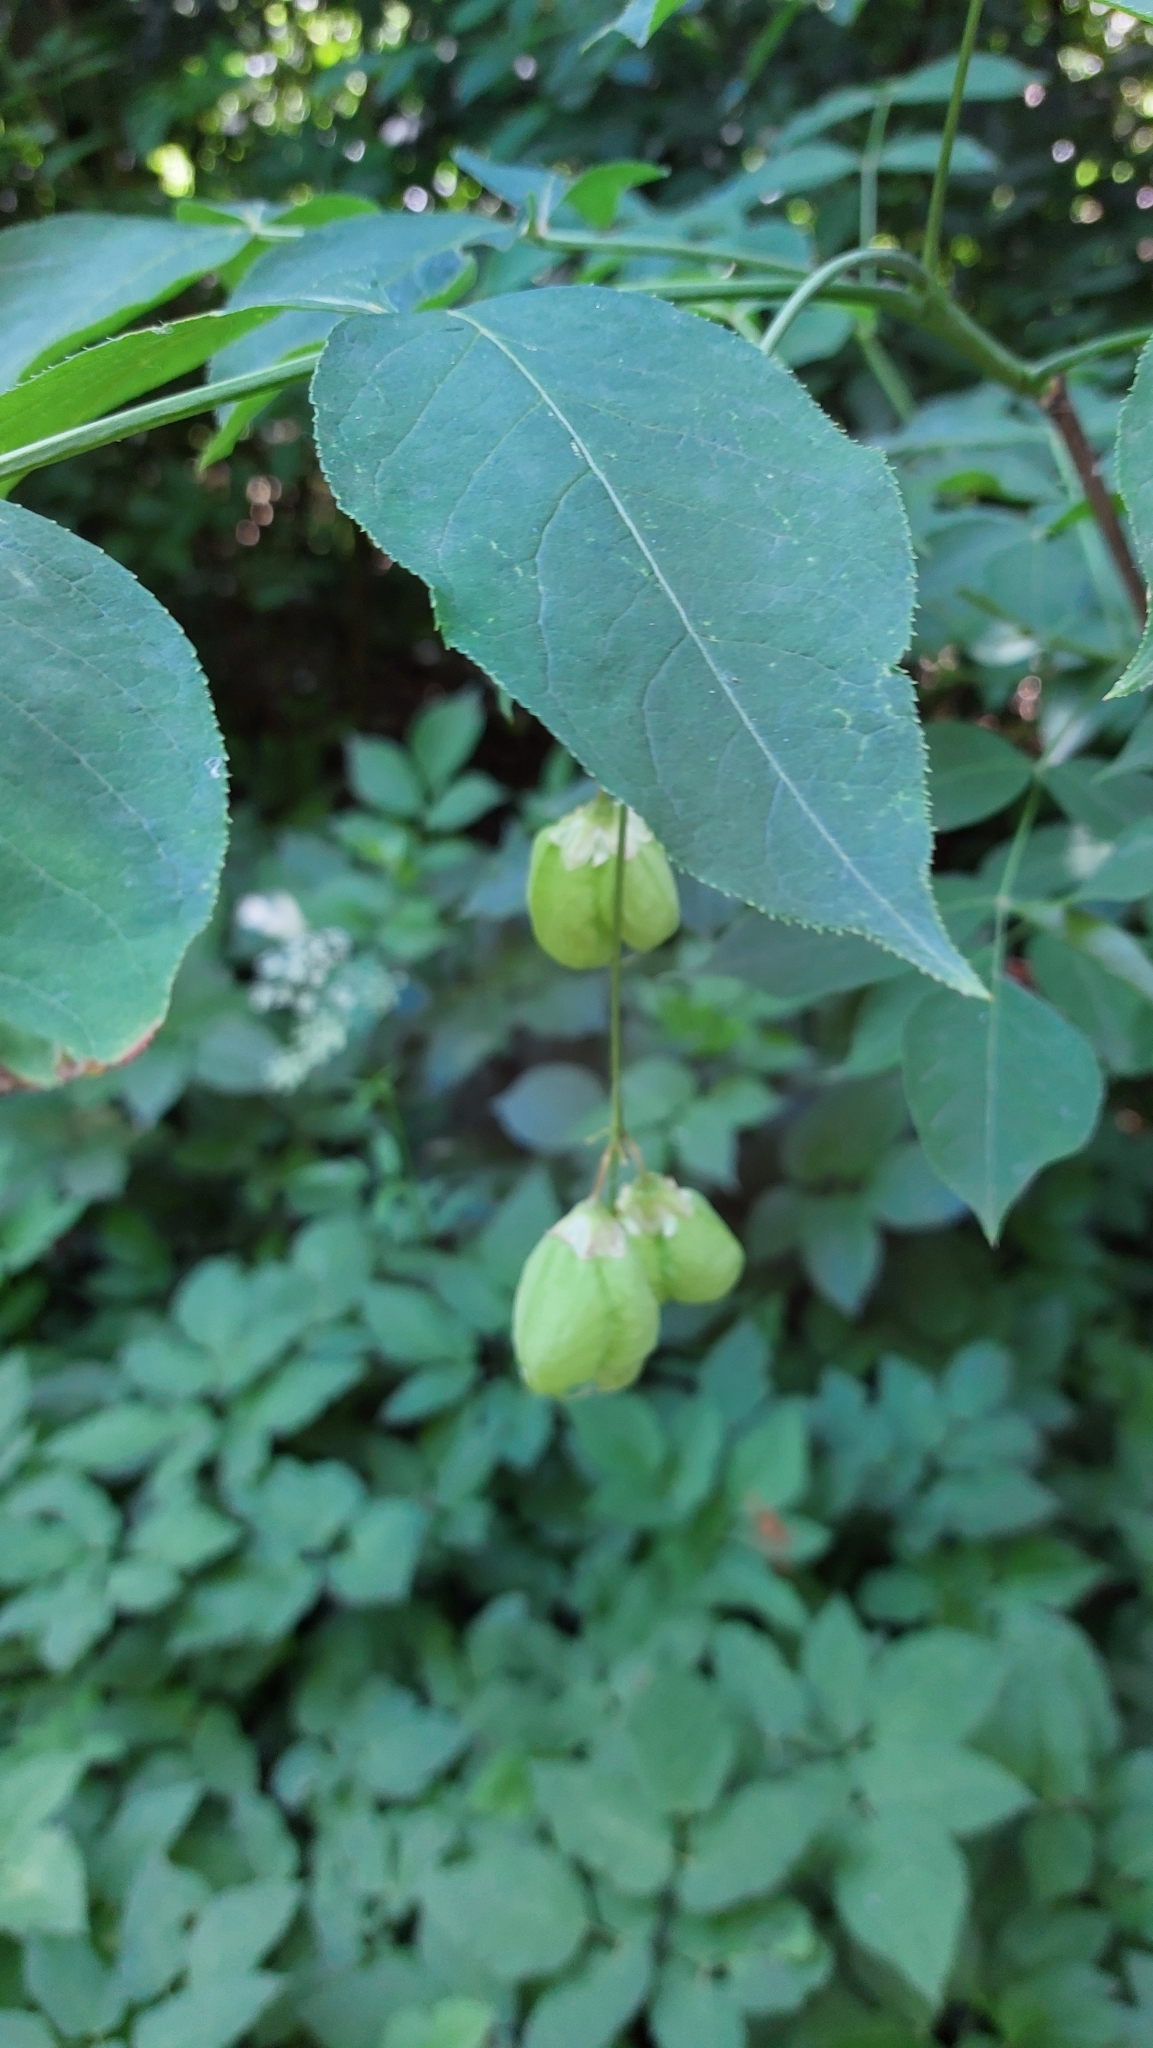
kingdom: Plantae
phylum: Tracheophyta
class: Magnoliopsida
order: Crossosomatales
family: Staphyleaceae
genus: Staphylea
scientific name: Staphylea pinnata
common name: Bladdernut
